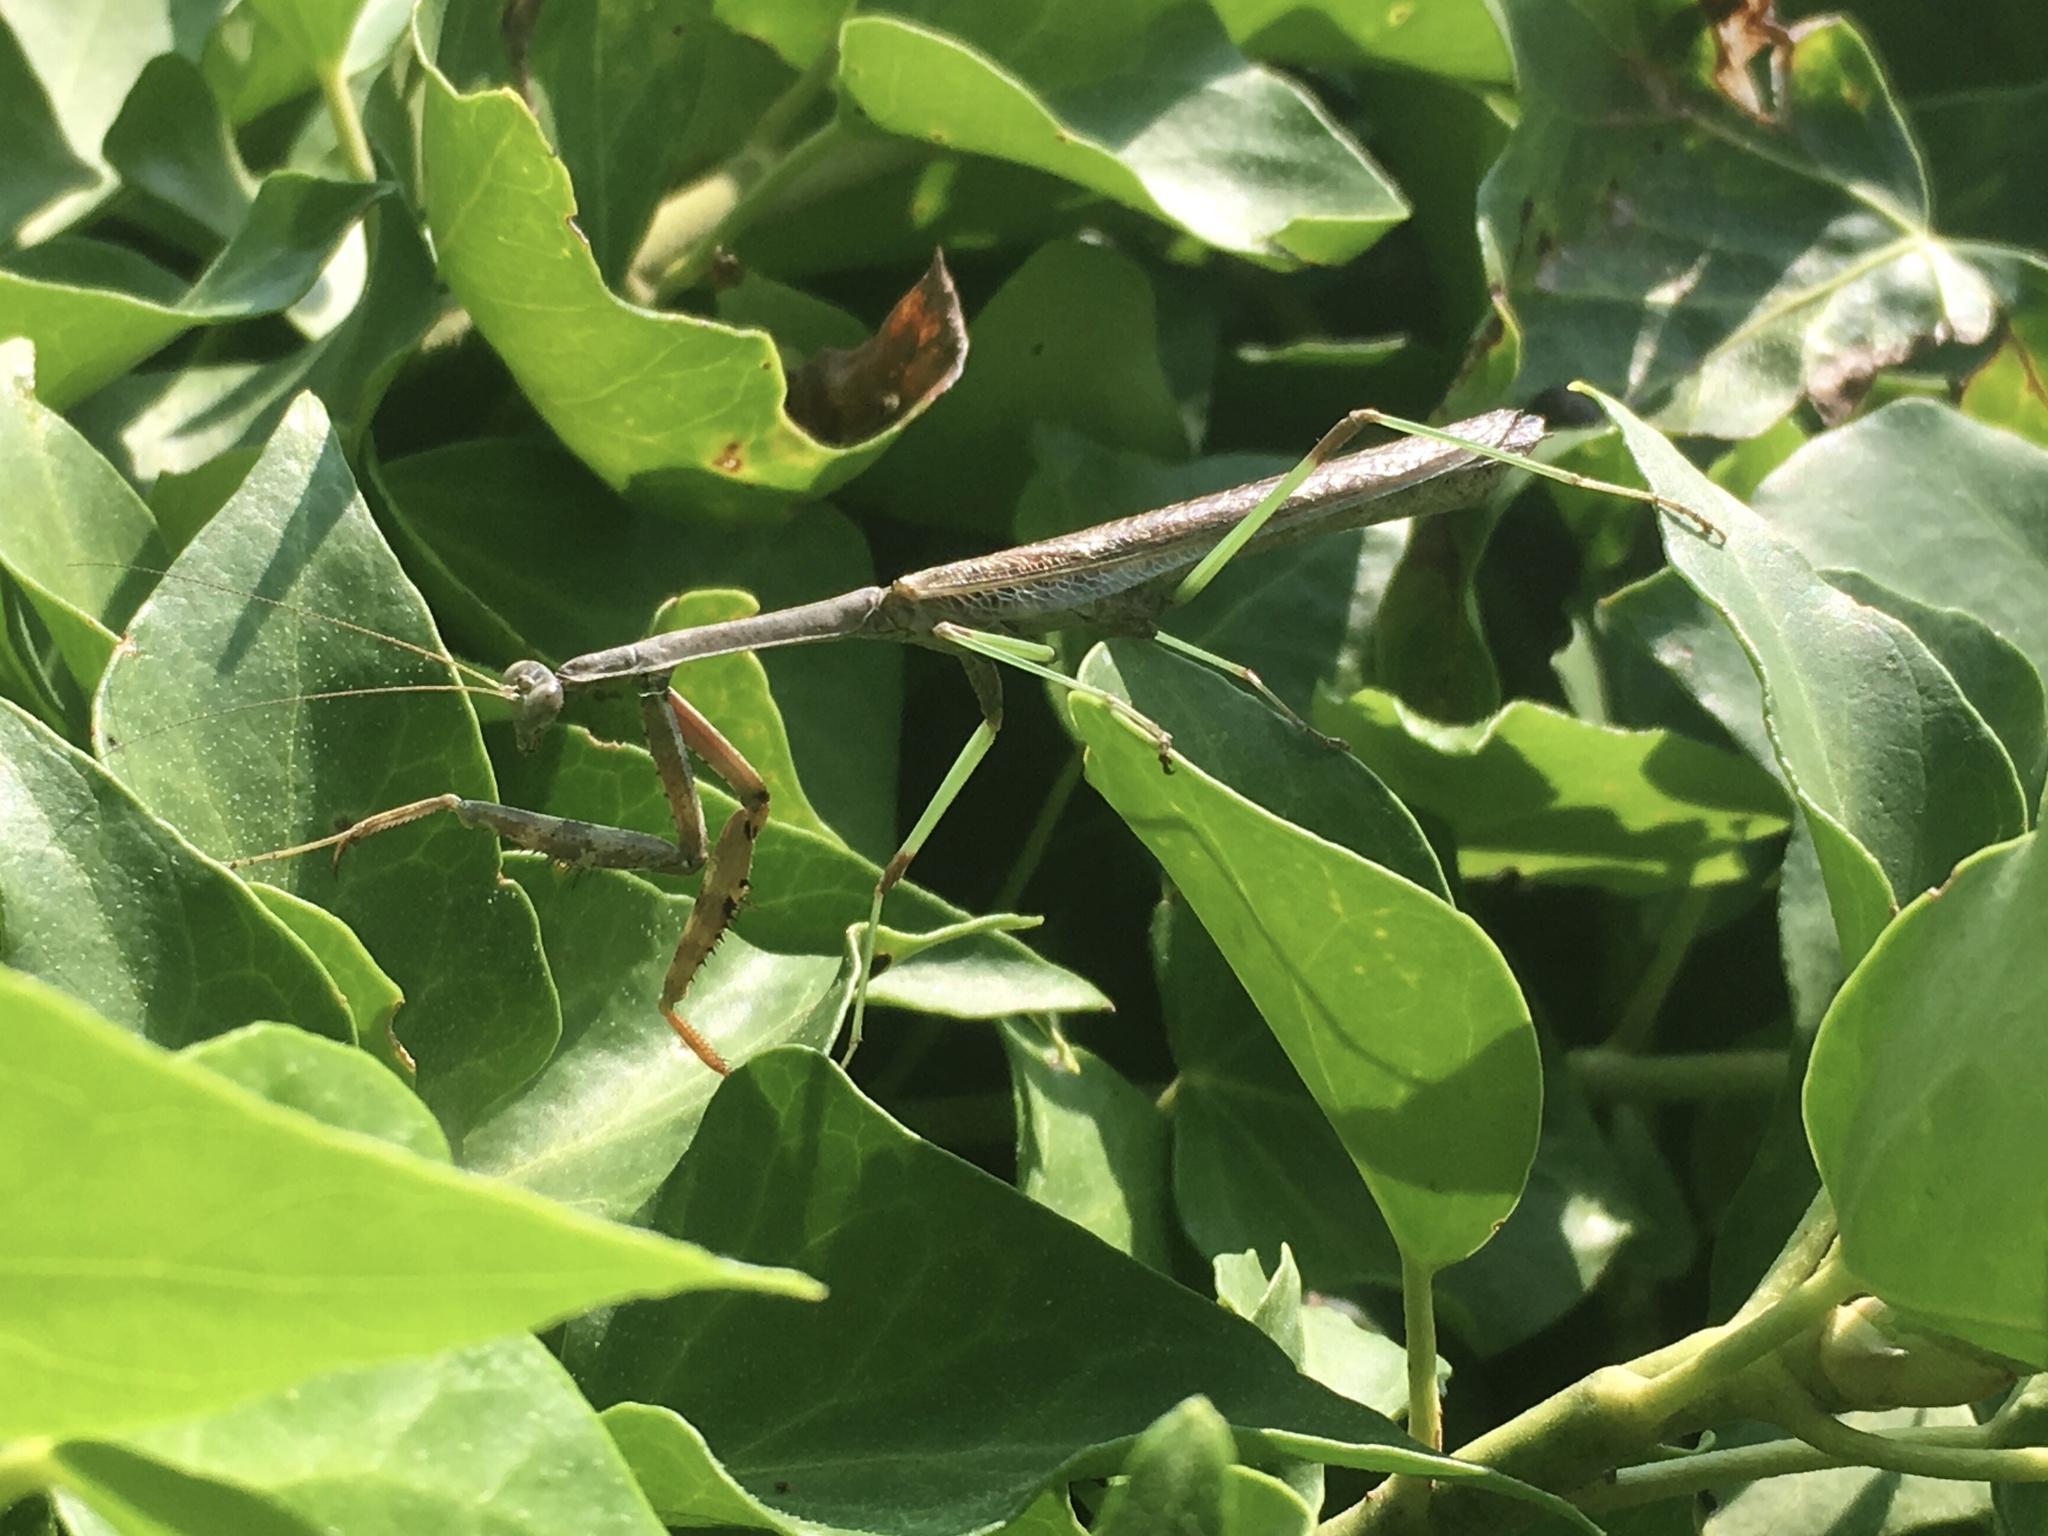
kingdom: Animalia
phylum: Arthropoda
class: Insecta
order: Mantodea
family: Mantidae
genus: Stagmomantis
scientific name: Stagmomantis carolina
